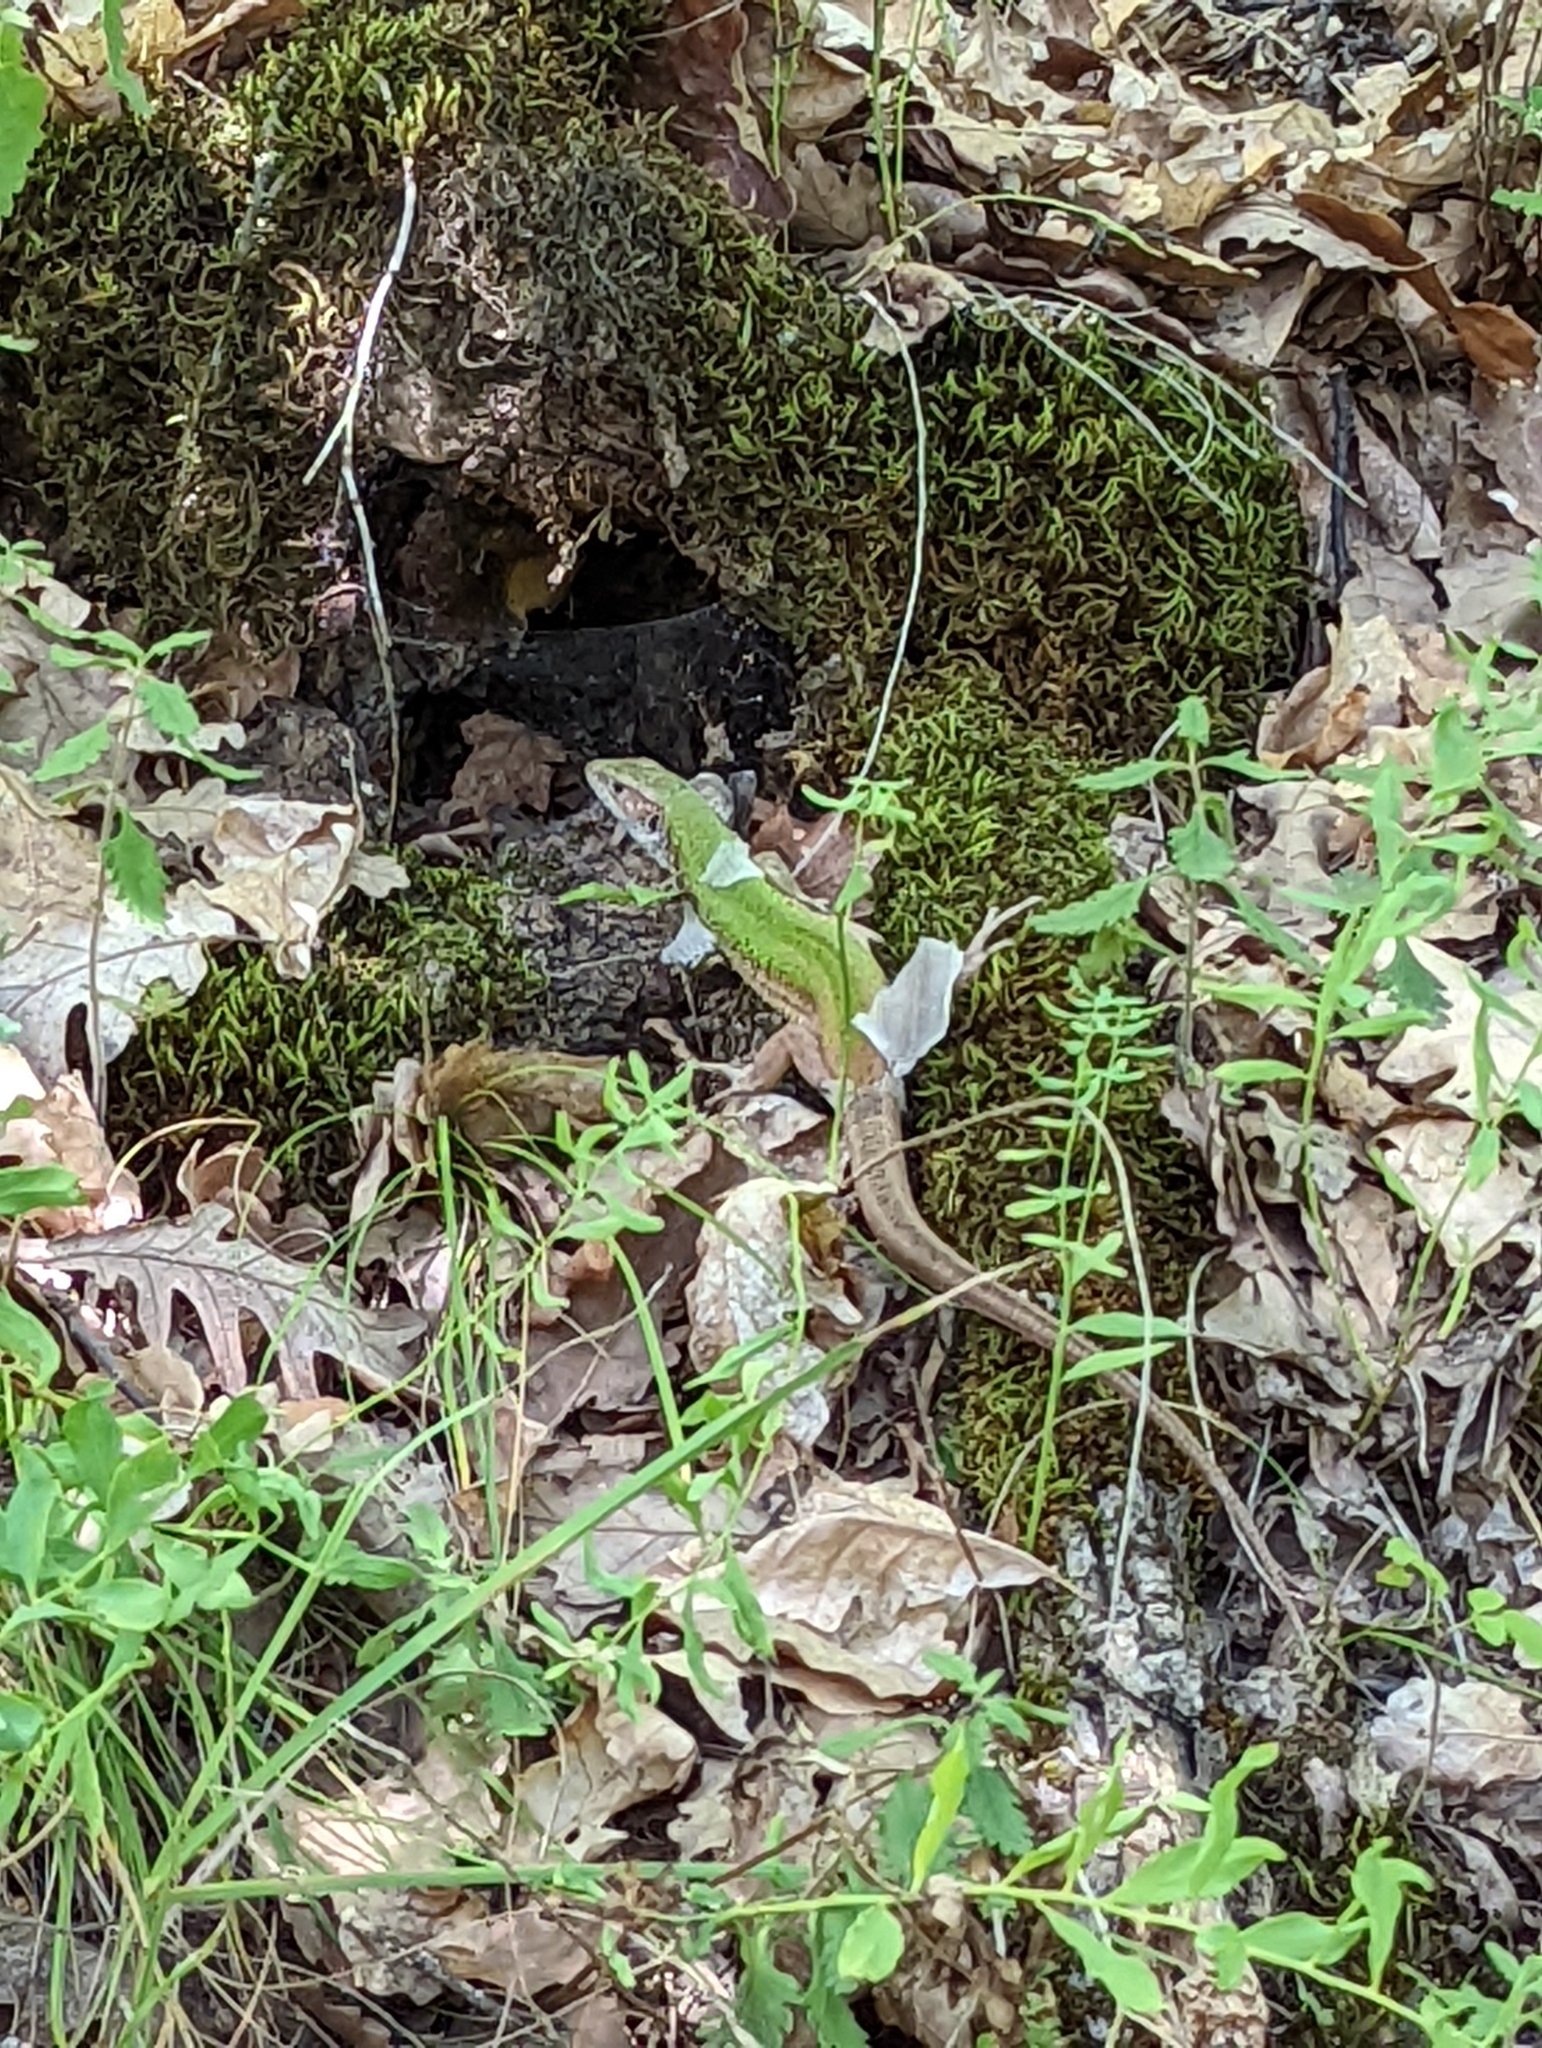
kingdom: Animalia
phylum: Chordata
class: Squamata
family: Lacertidae
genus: Lacerta
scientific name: Lacerta viridis
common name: European green lizard
